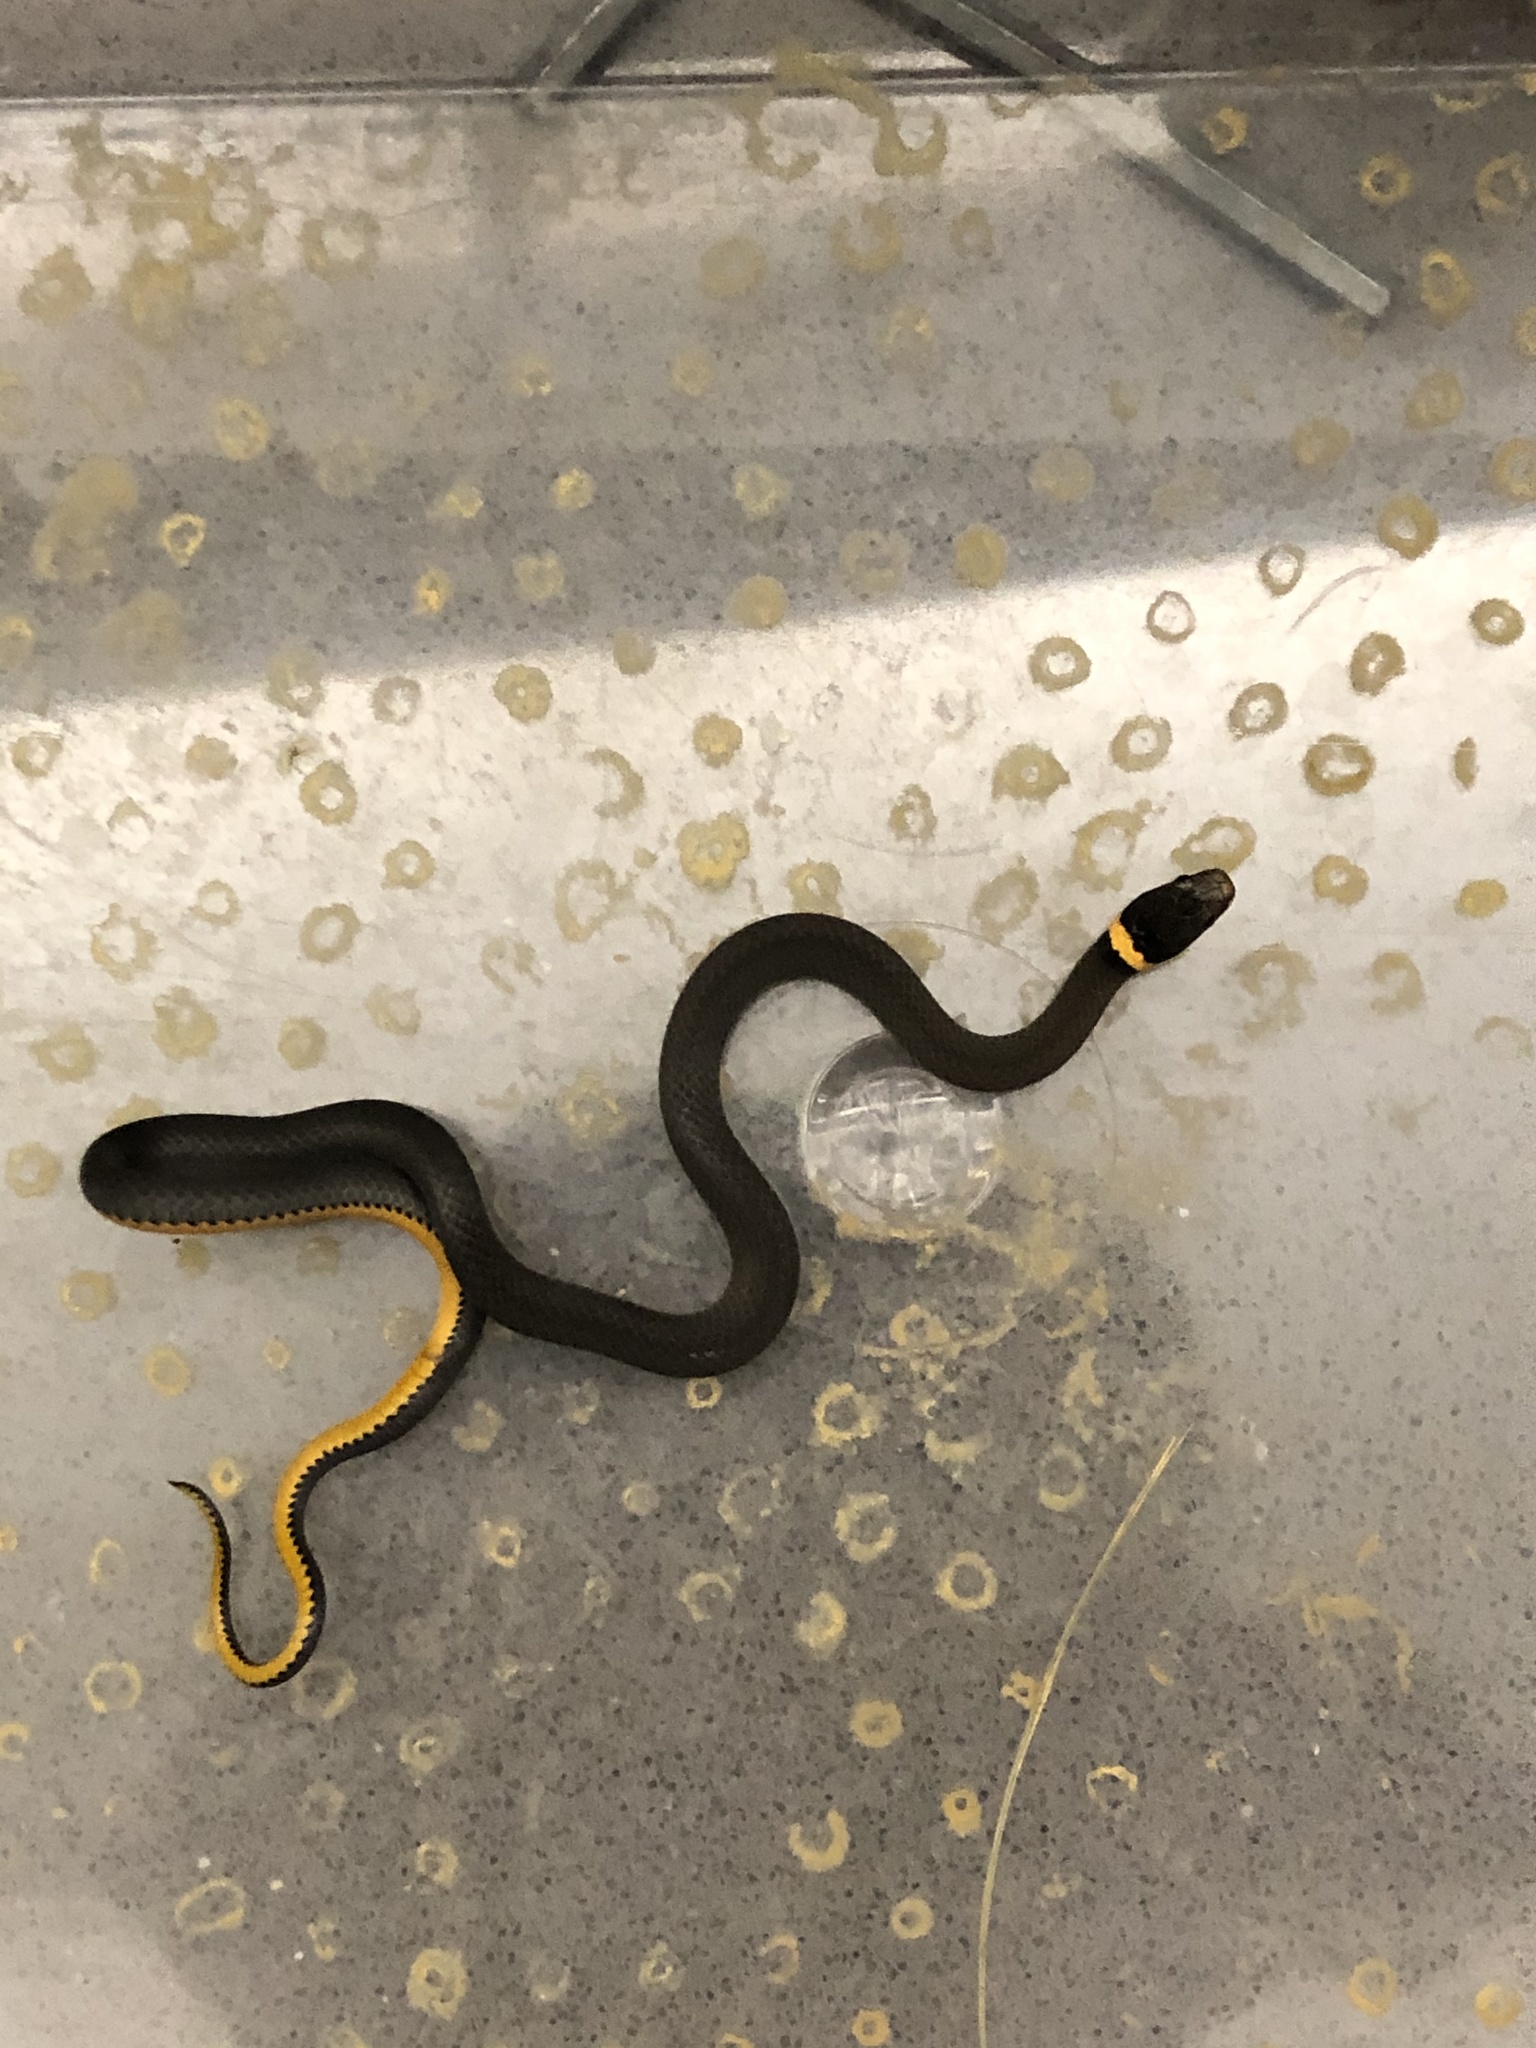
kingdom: Animalia
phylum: Chordata
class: Squamata
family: Colubridae
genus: Diadophis
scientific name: Diadophis punctatus
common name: Ringneck snake
